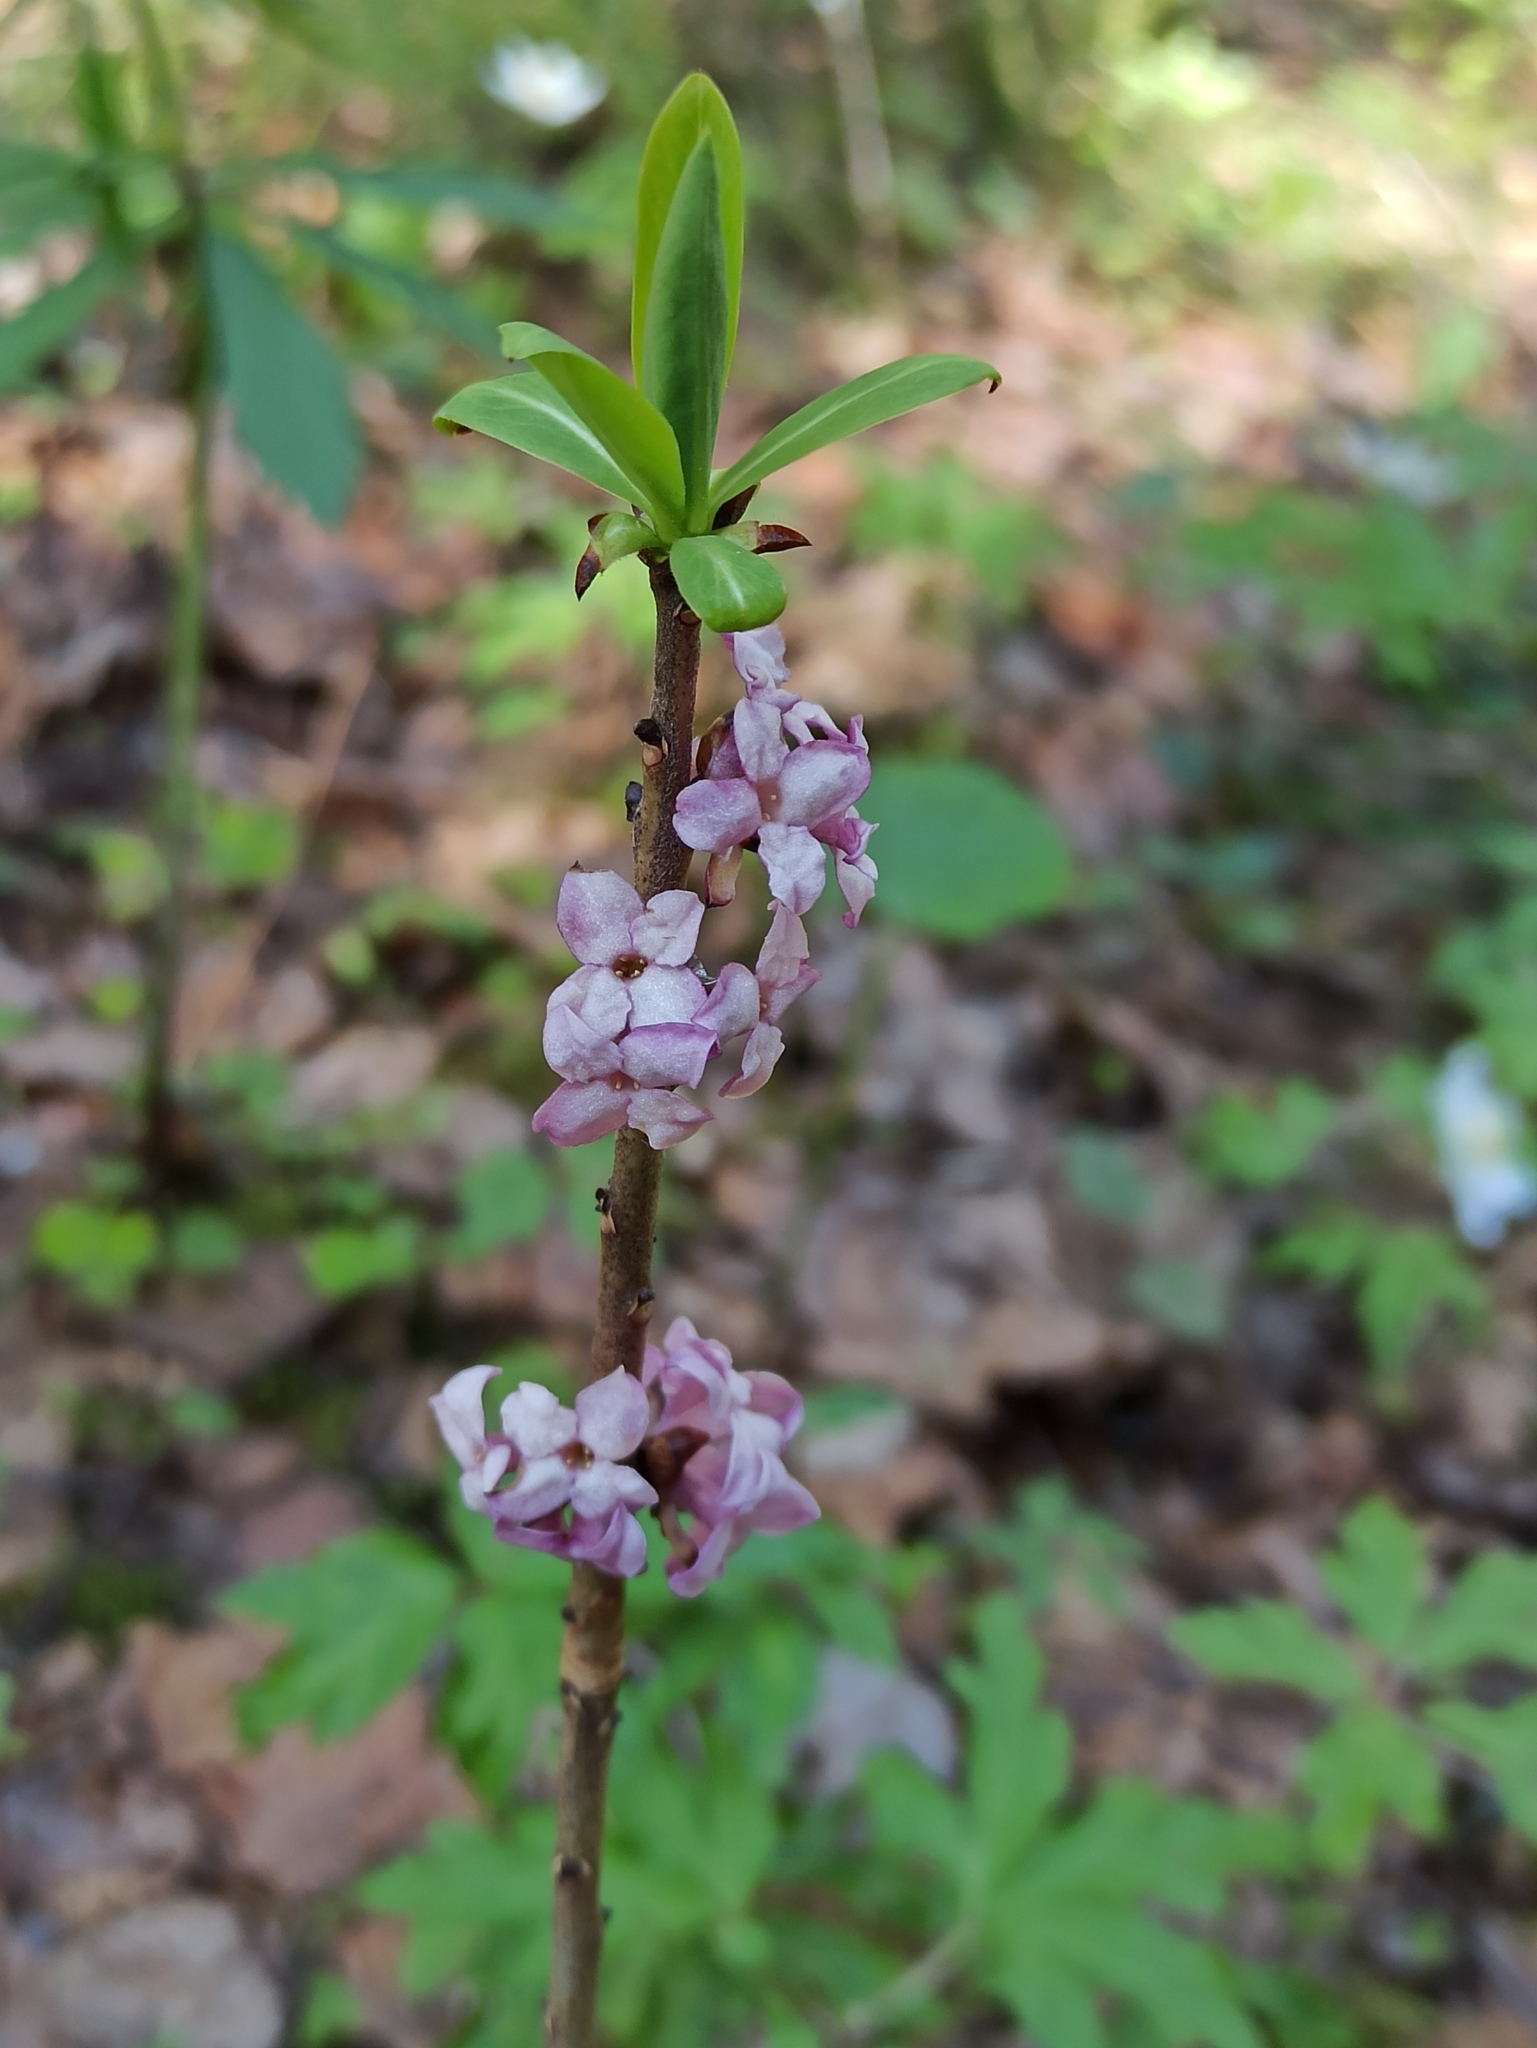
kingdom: Plantae
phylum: Tracheophyta
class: Magnoliopsida
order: Malvales
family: Thymelaeaceae
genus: Daphne
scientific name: Daphne mezereum
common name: Mezereon
